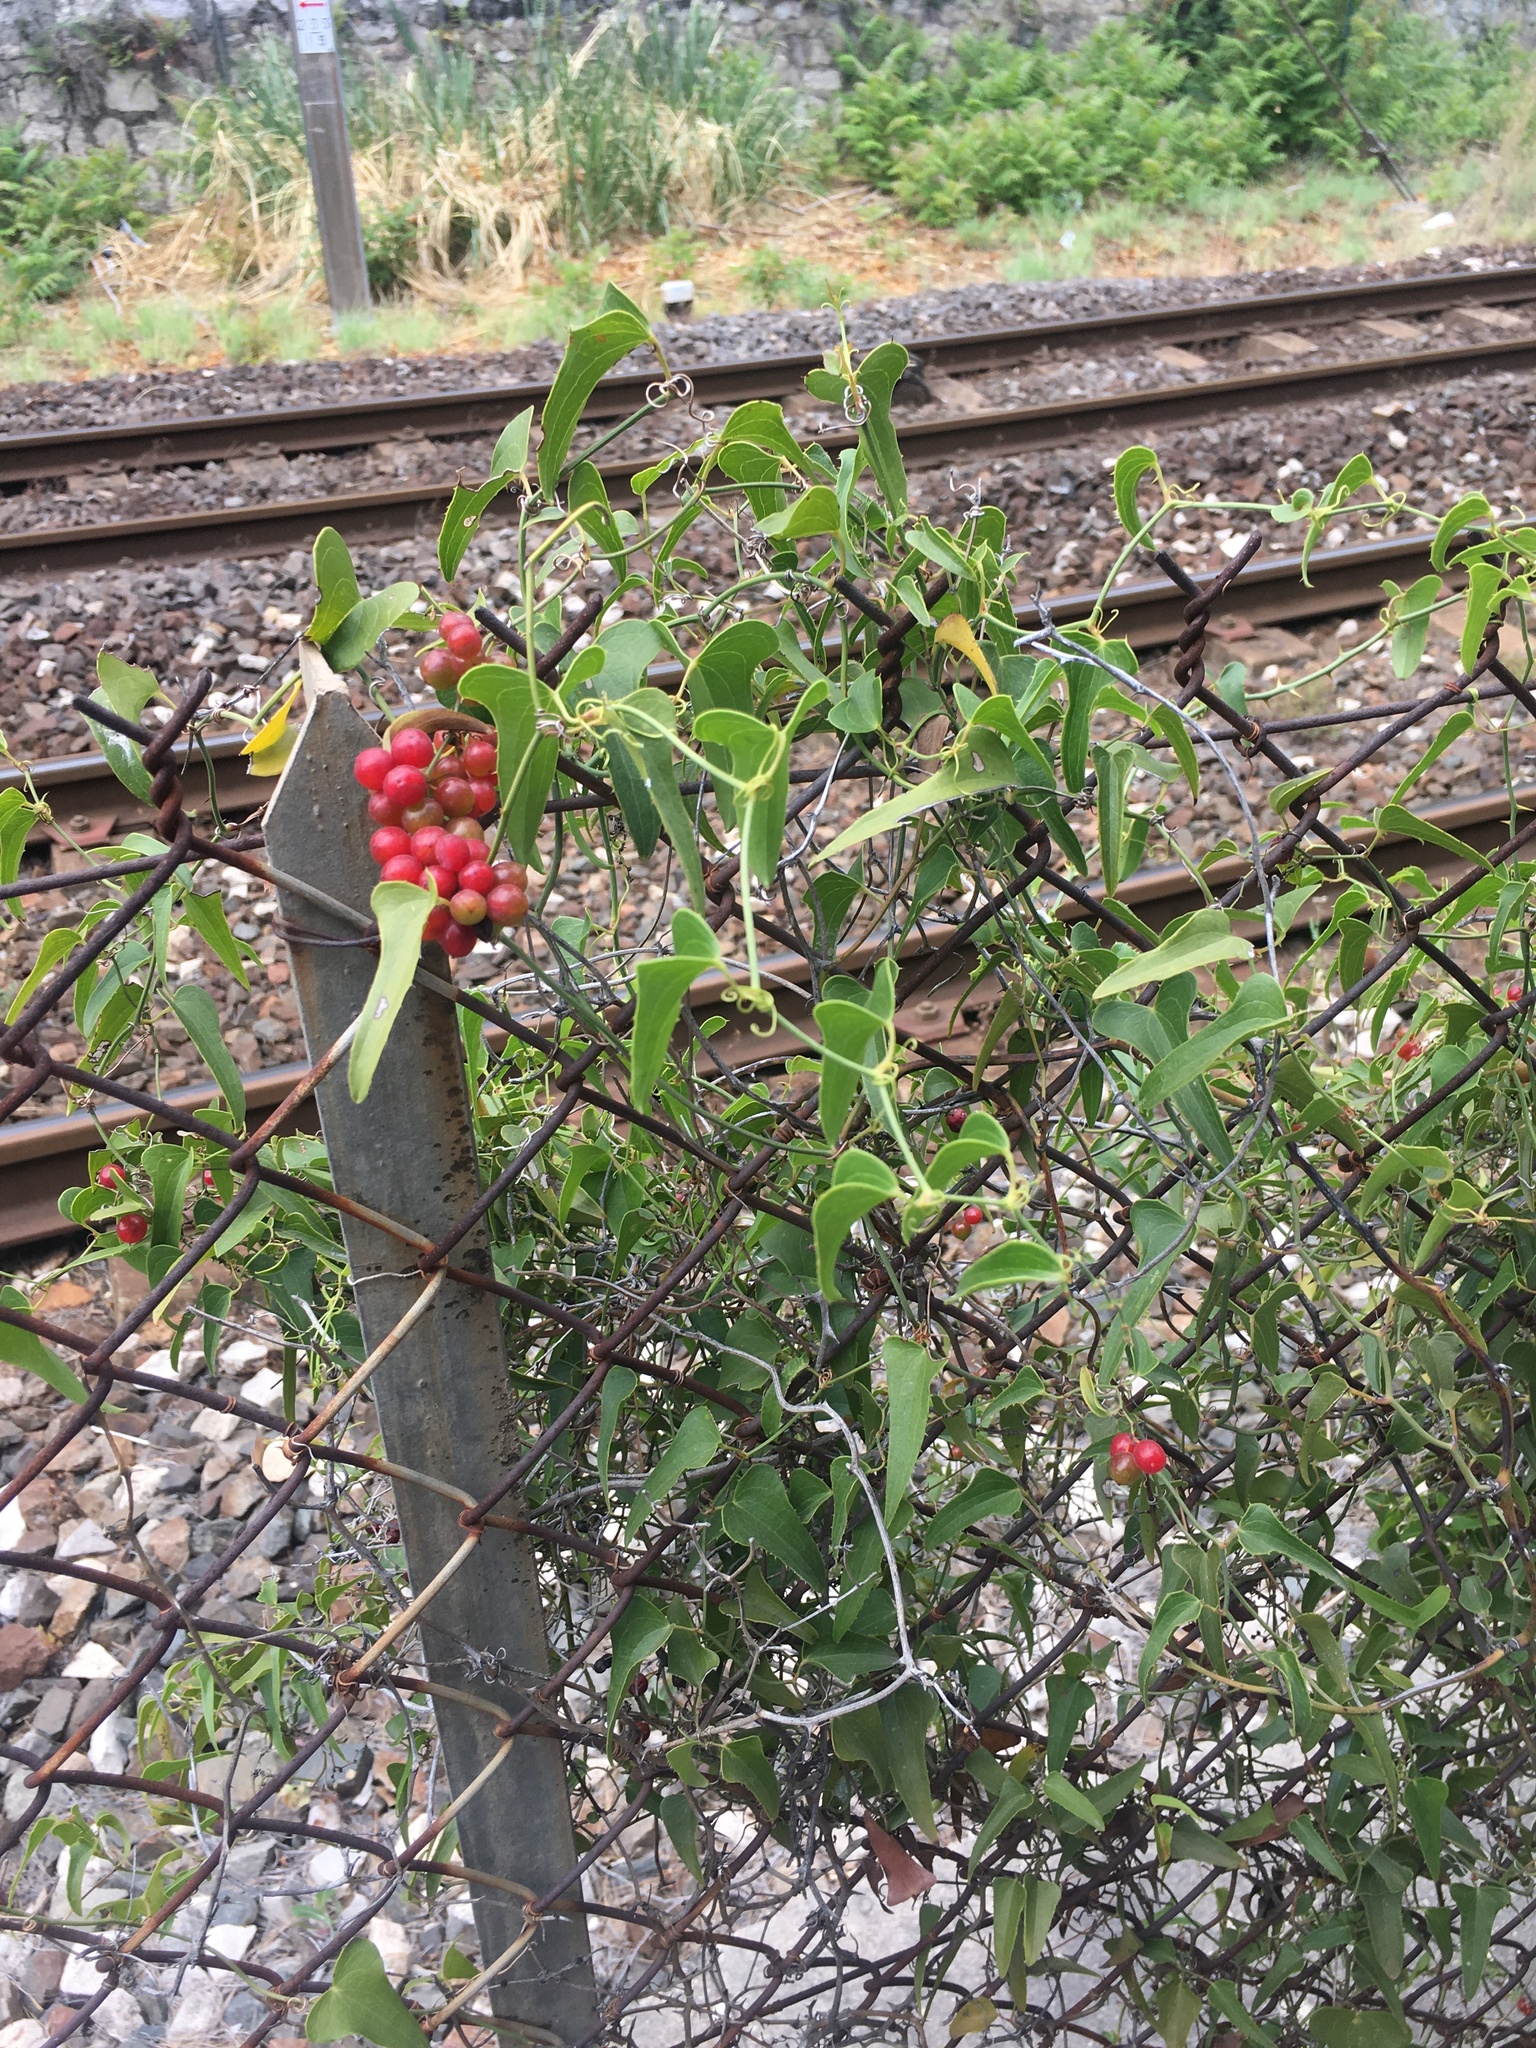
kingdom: Plantae
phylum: Tracheophyta
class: Liliopsida
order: Liliales
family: Smilacaceae
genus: Smilax
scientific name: Smilax aspera
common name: Common smilax
